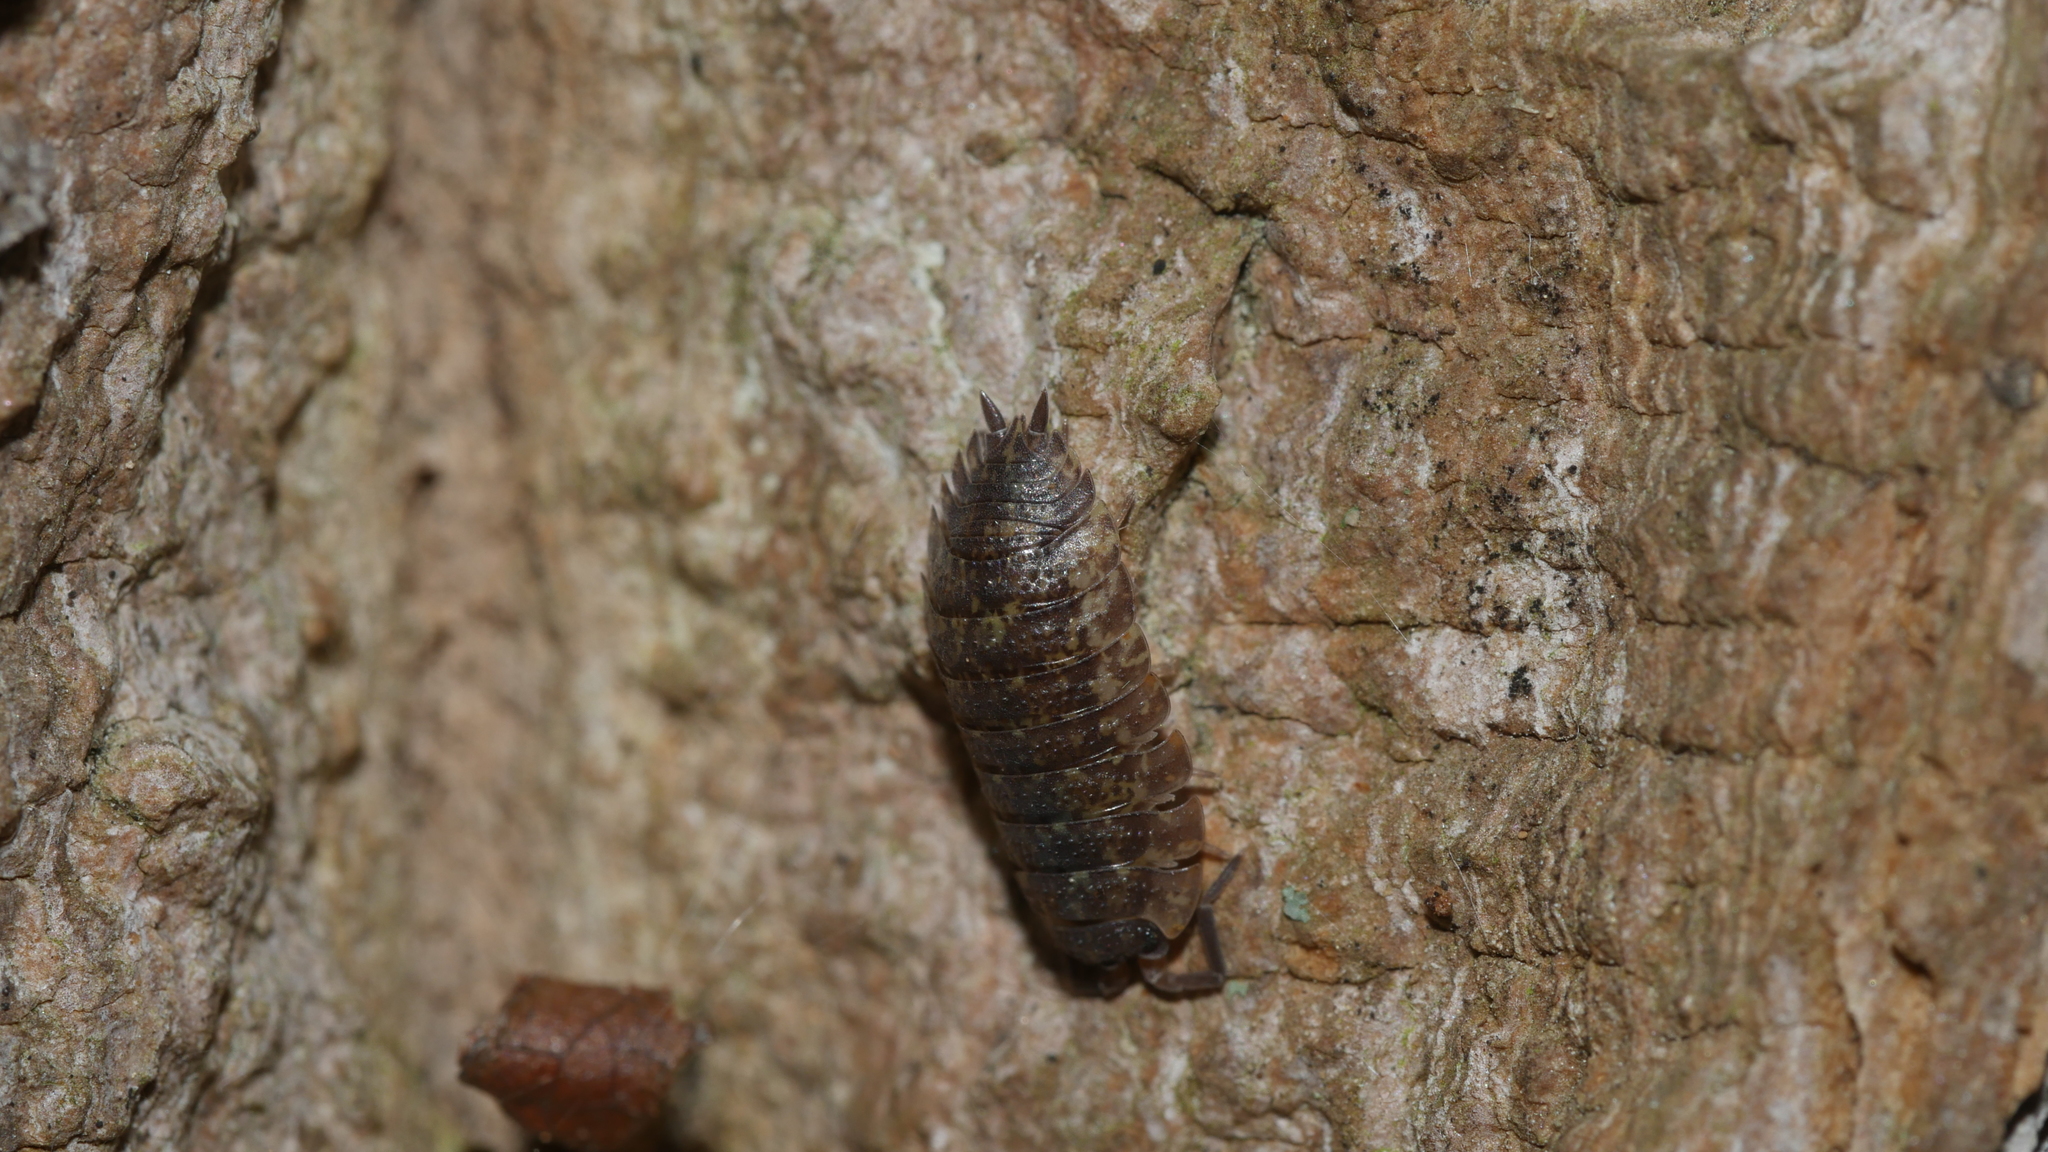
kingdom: Animalia
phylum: Arthropoda
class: Malacostraca
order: Isopoda
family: Porcellionidae
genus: Porcellio
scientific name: Porcellio scaber
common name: Common rough woodlouse
